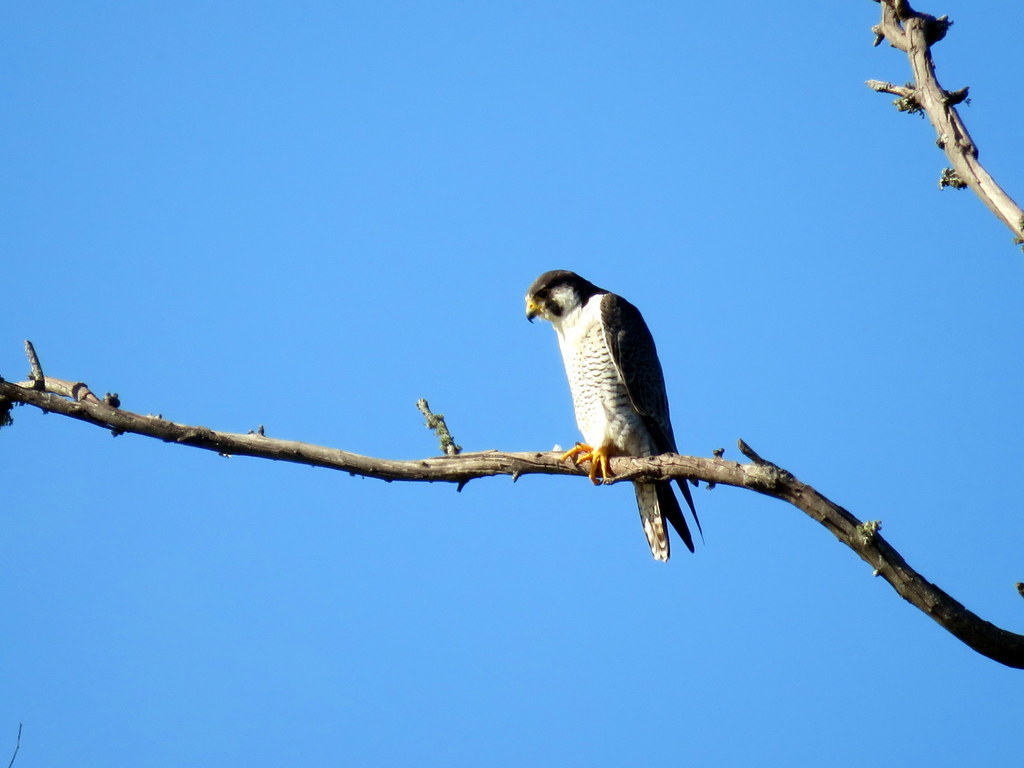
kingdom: Animalia
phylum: Chordata
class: Aves
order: Falconiformes
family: Falconidae
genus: Falco
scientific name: Falco peregrinus
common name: Peregrine falcon
